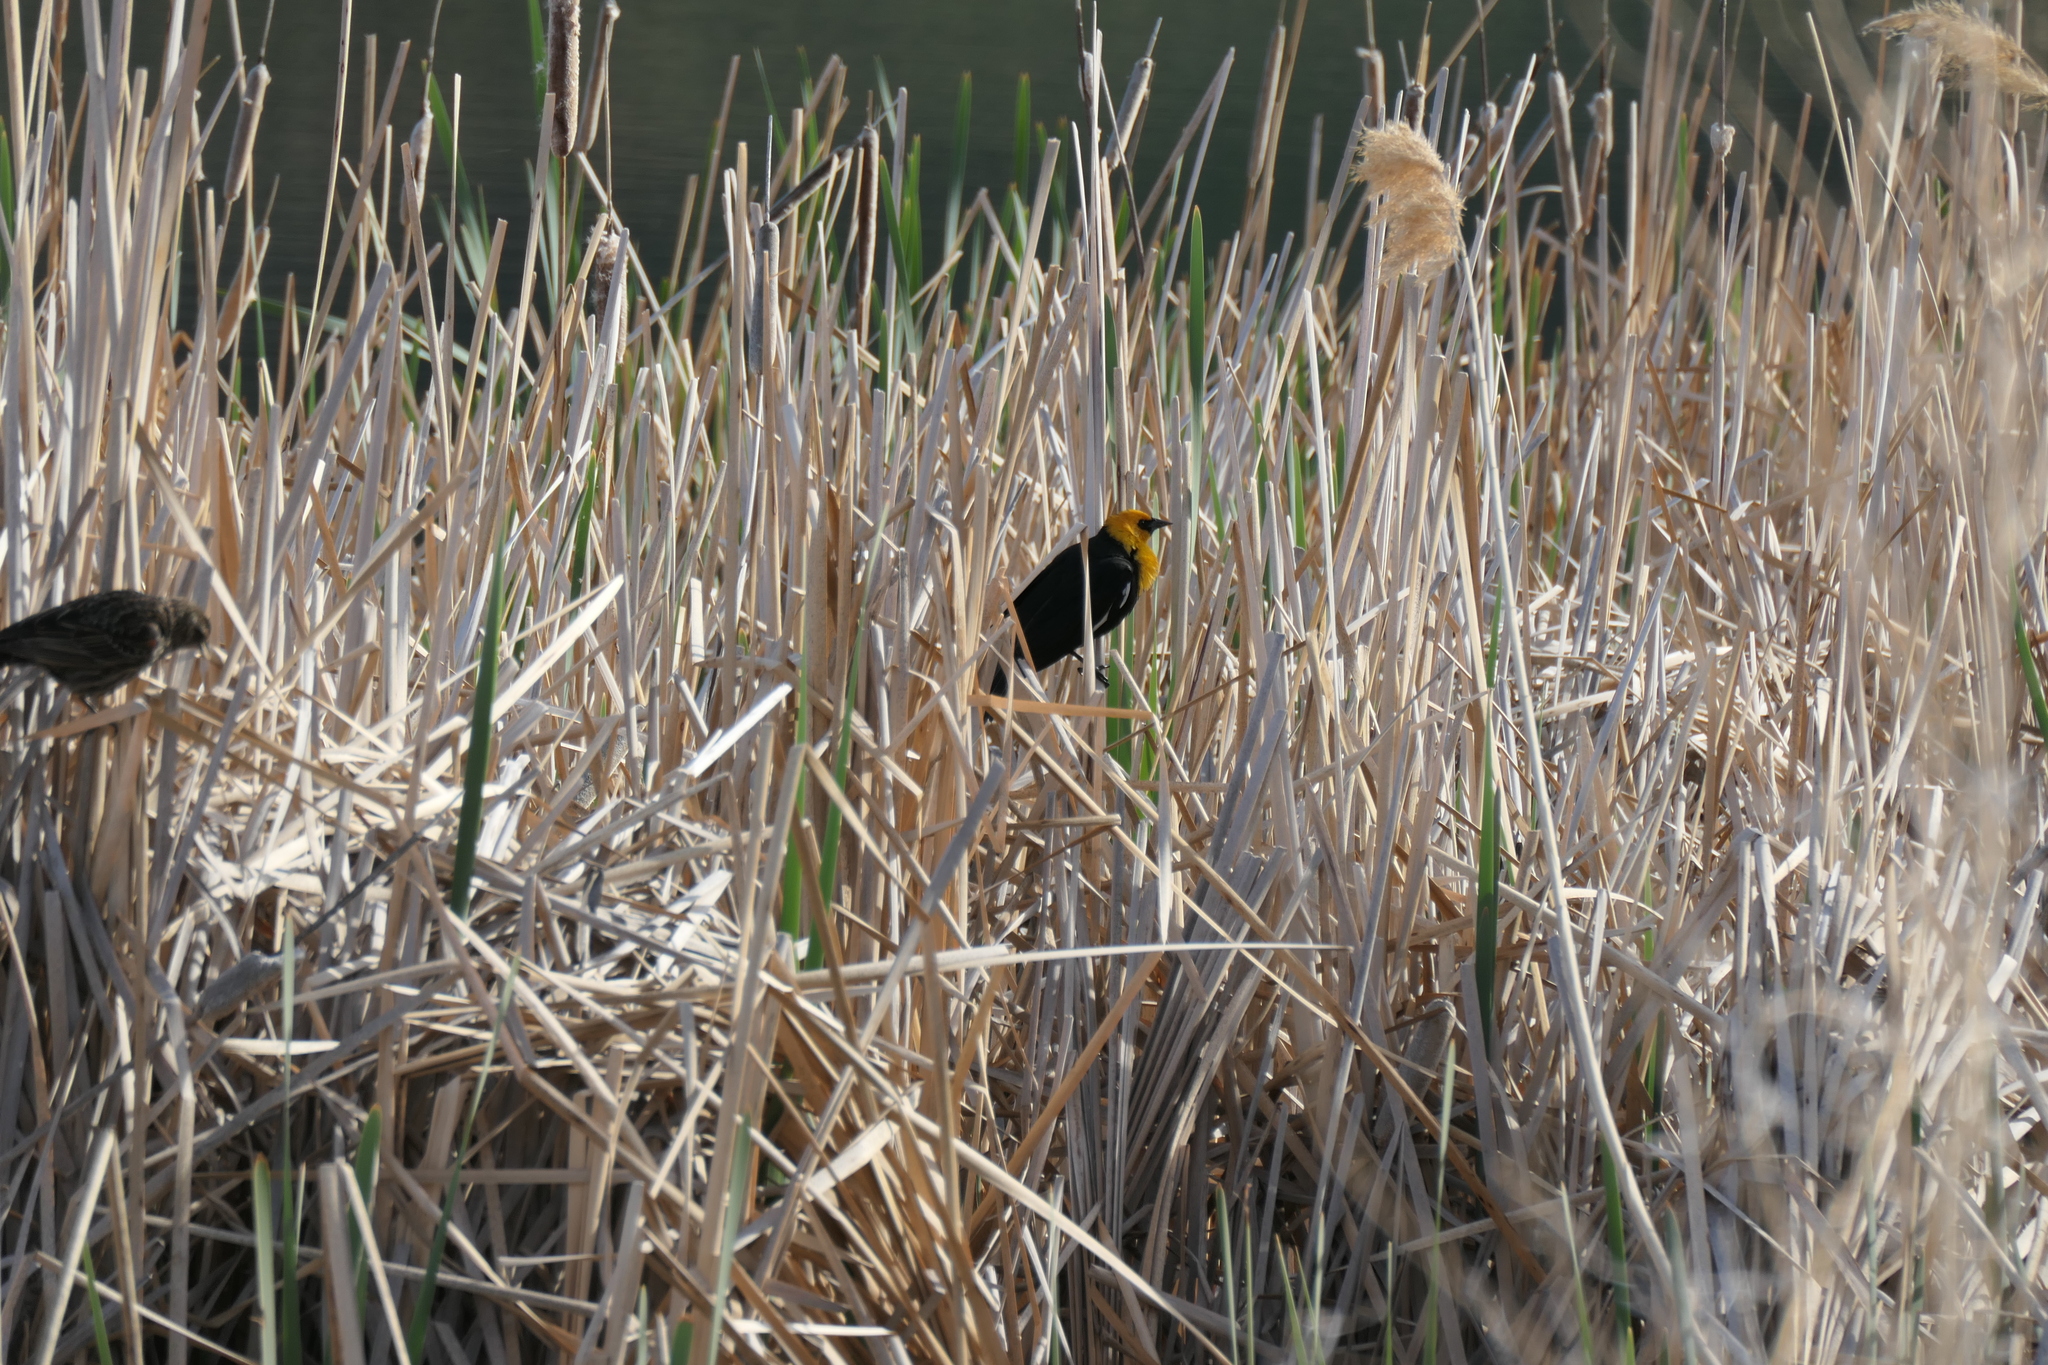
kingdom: Animalia
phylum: Chordata
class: Aves
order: Passeriformes
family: Icteridae
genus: Xanthocephalus
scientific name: Xanthocephalus xanthocephalus
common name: Yellow-headed blackbird
